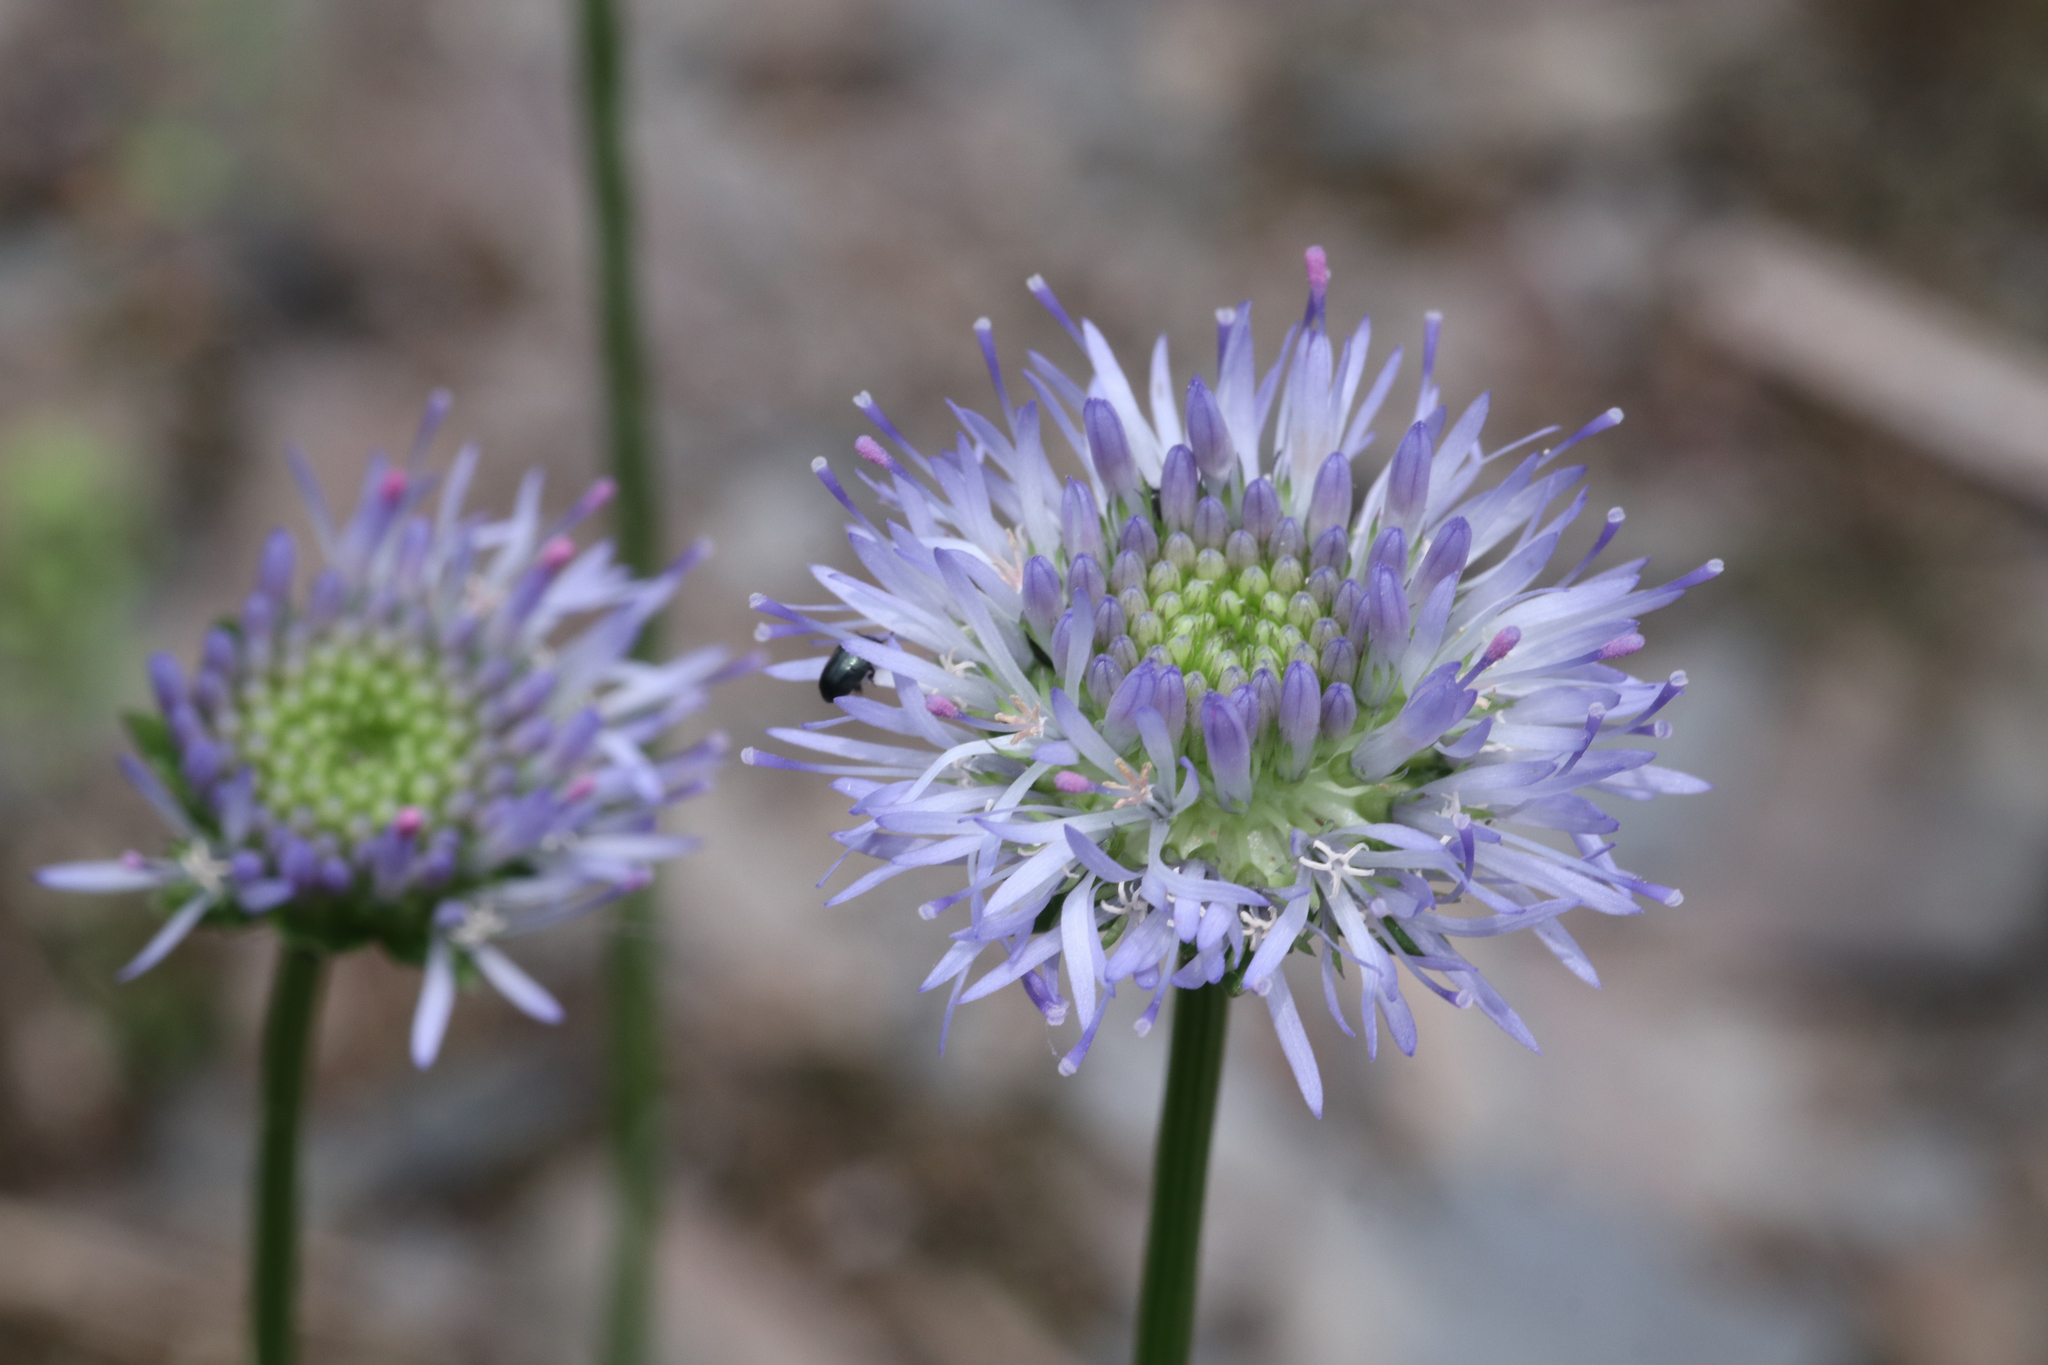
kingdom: Plantae
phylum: Tracheophyta
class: Magnoliopsida
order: Asterales
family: Campanulaceae
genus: Jasione
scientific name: Jasione montana
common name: Sheep's-bit
